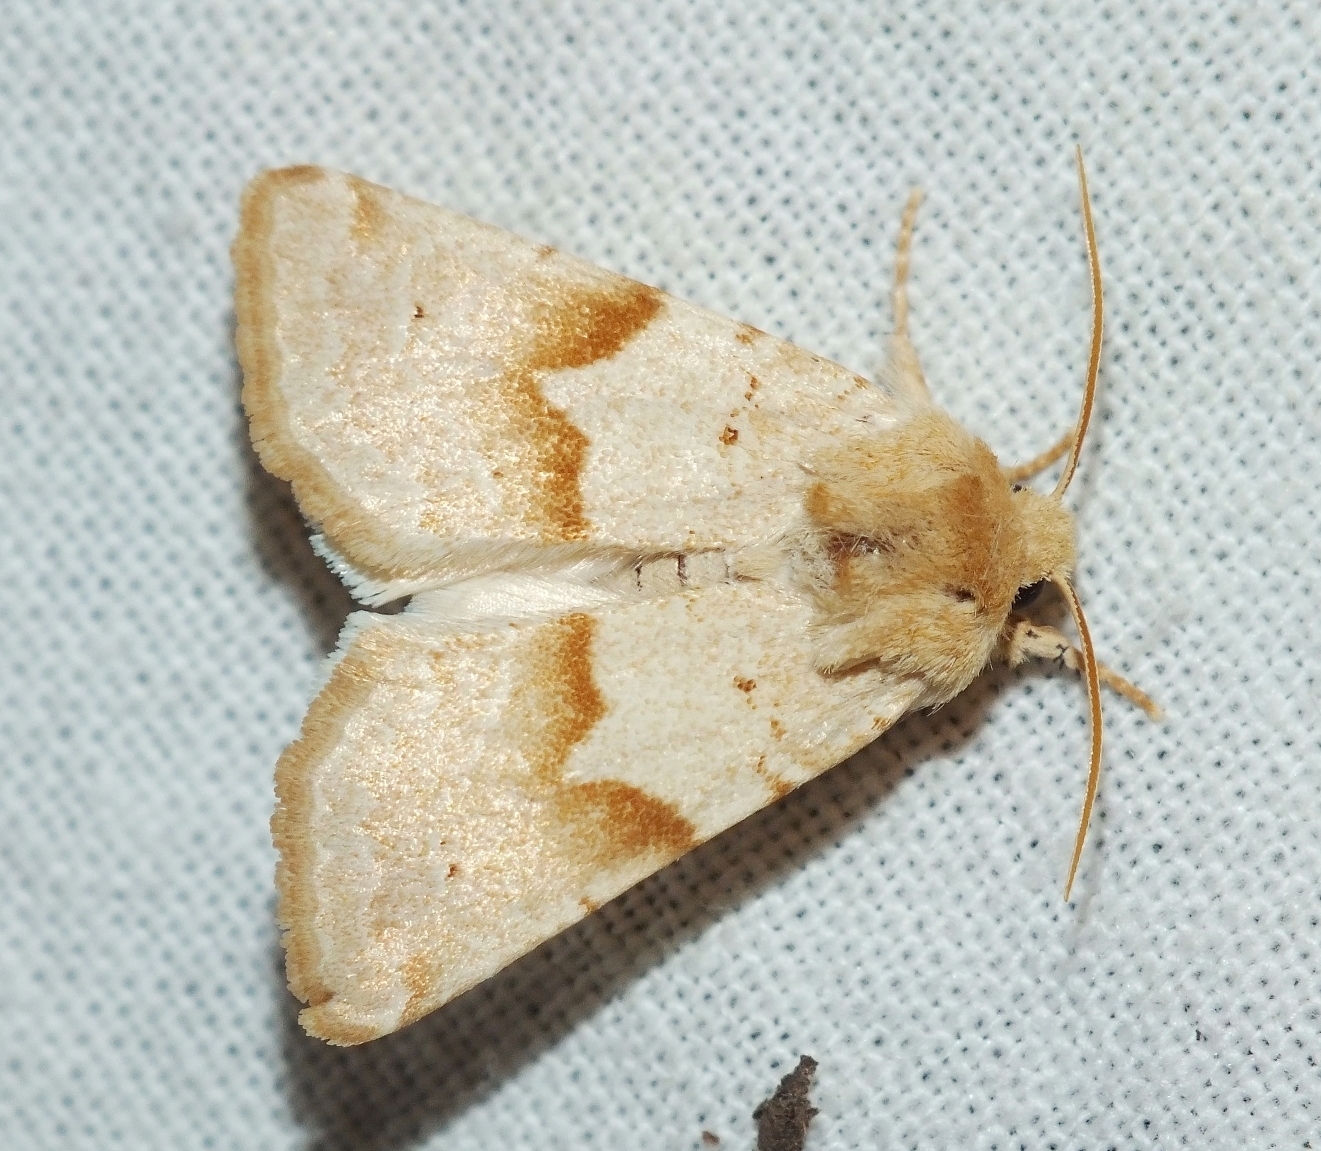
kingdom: Animalia
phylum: Arthropoda
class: Insecta
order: Lepidoptera
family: Noctuidae
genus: Mycteroplus
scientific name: Mycteroplus puniceago
